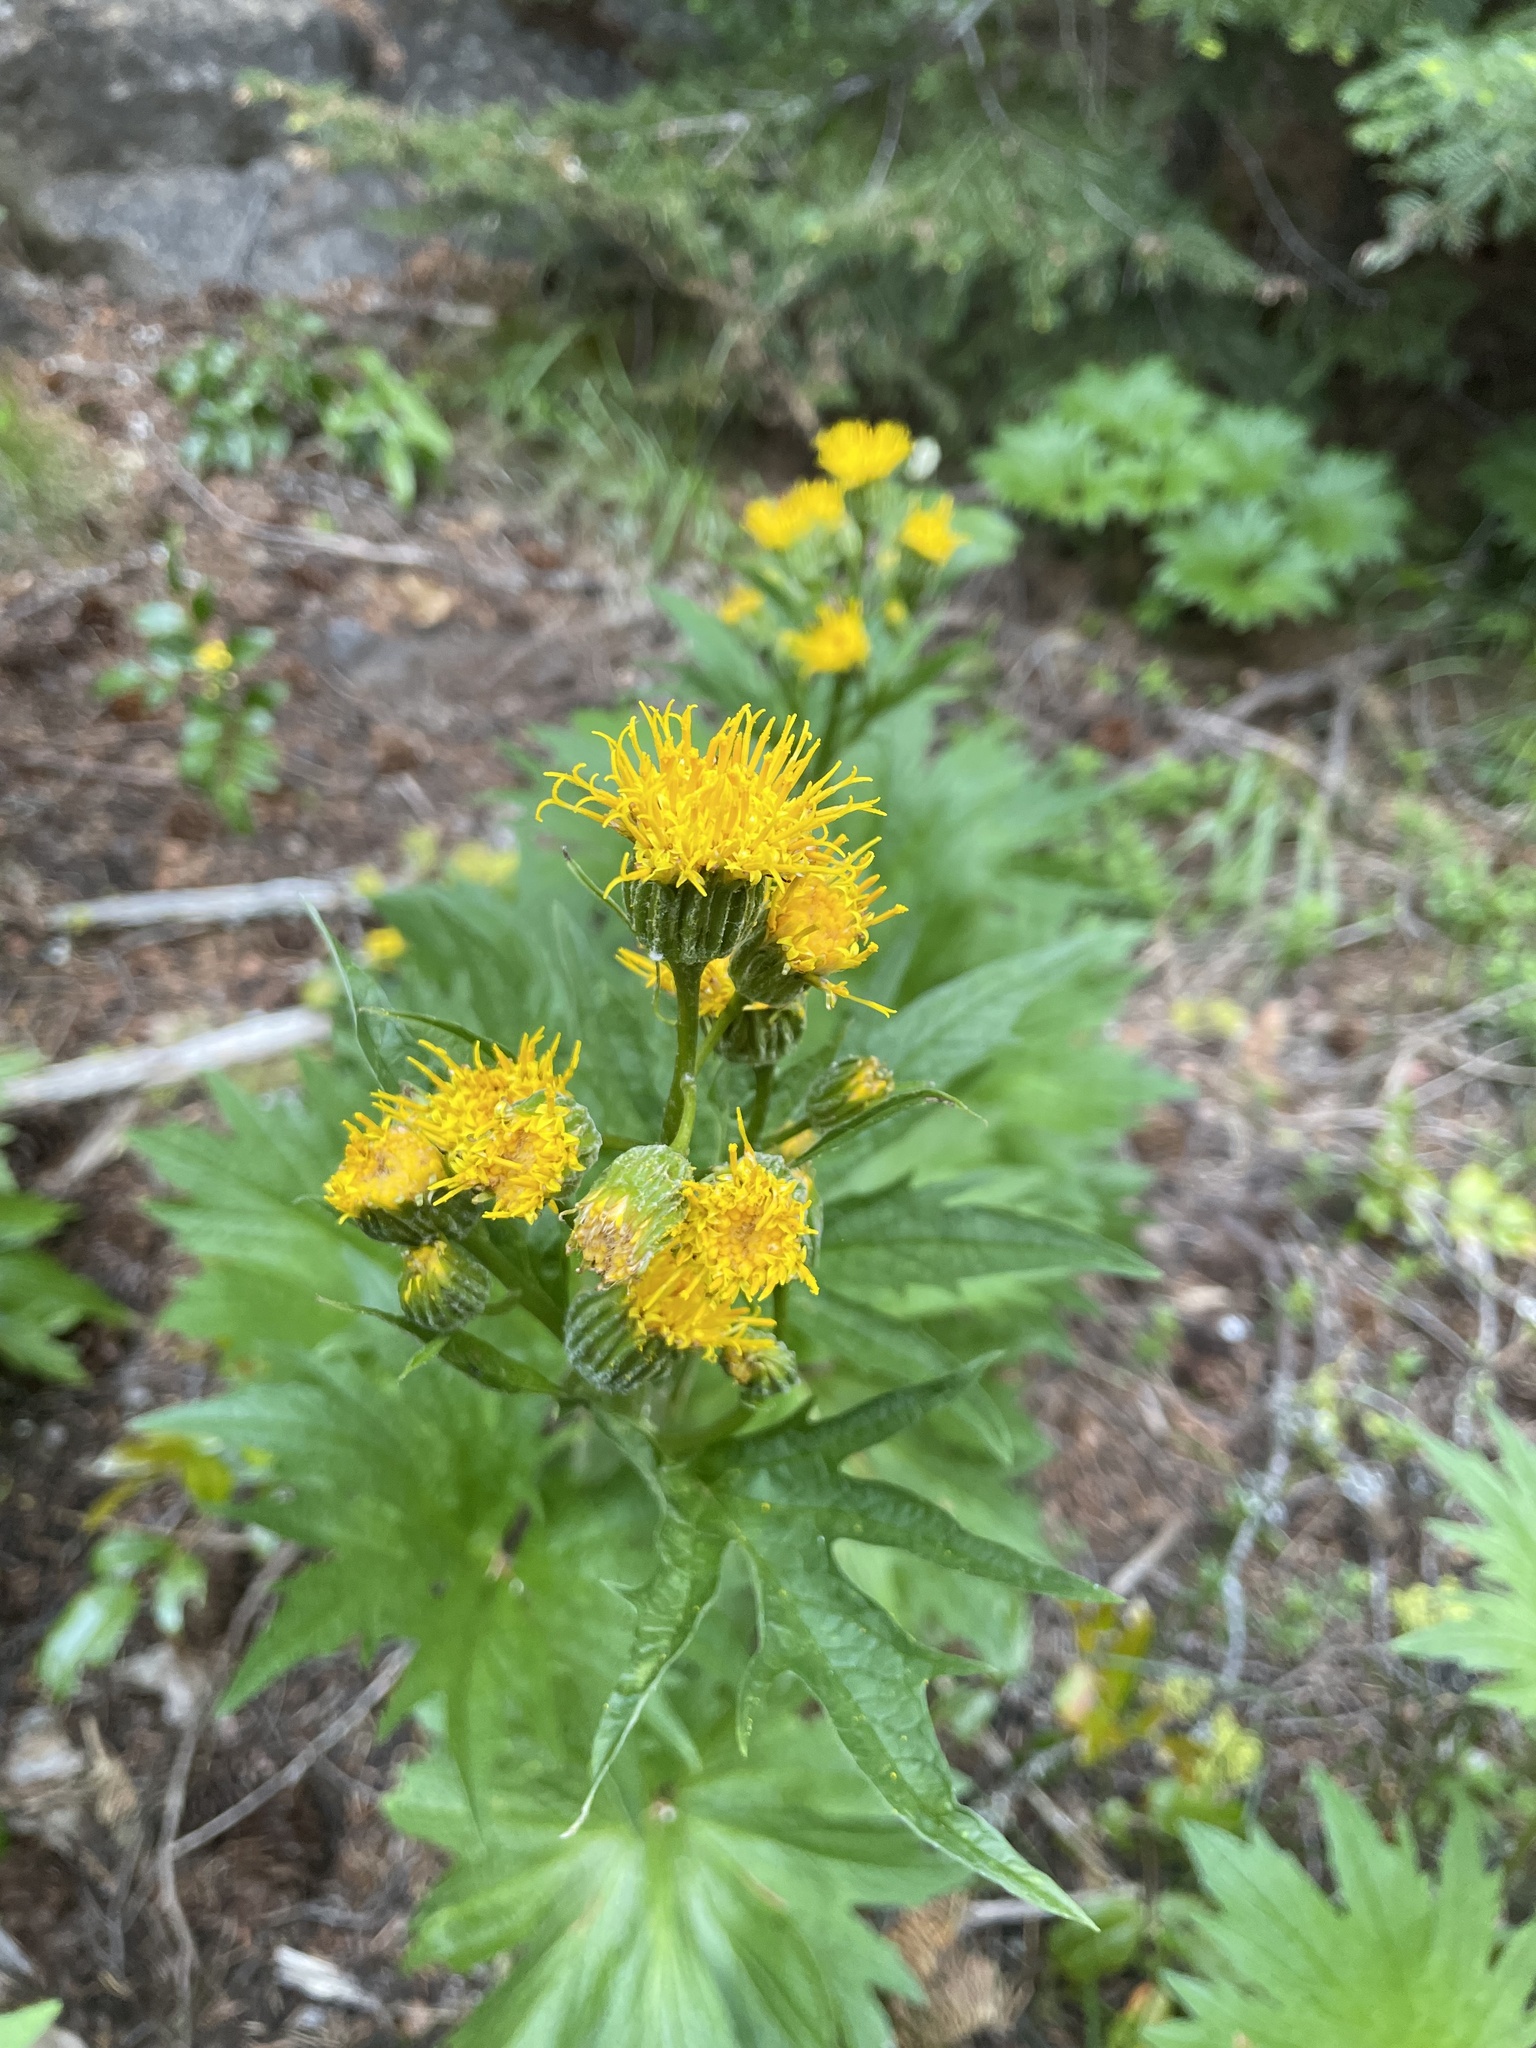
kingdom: Plantae
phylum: Tracheophyta
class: Magnoliopsida
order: Asterales
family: Asteraceae
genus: Cacaliopsis
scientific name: Cacaliopsis nardosmia
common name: Silvercrown
